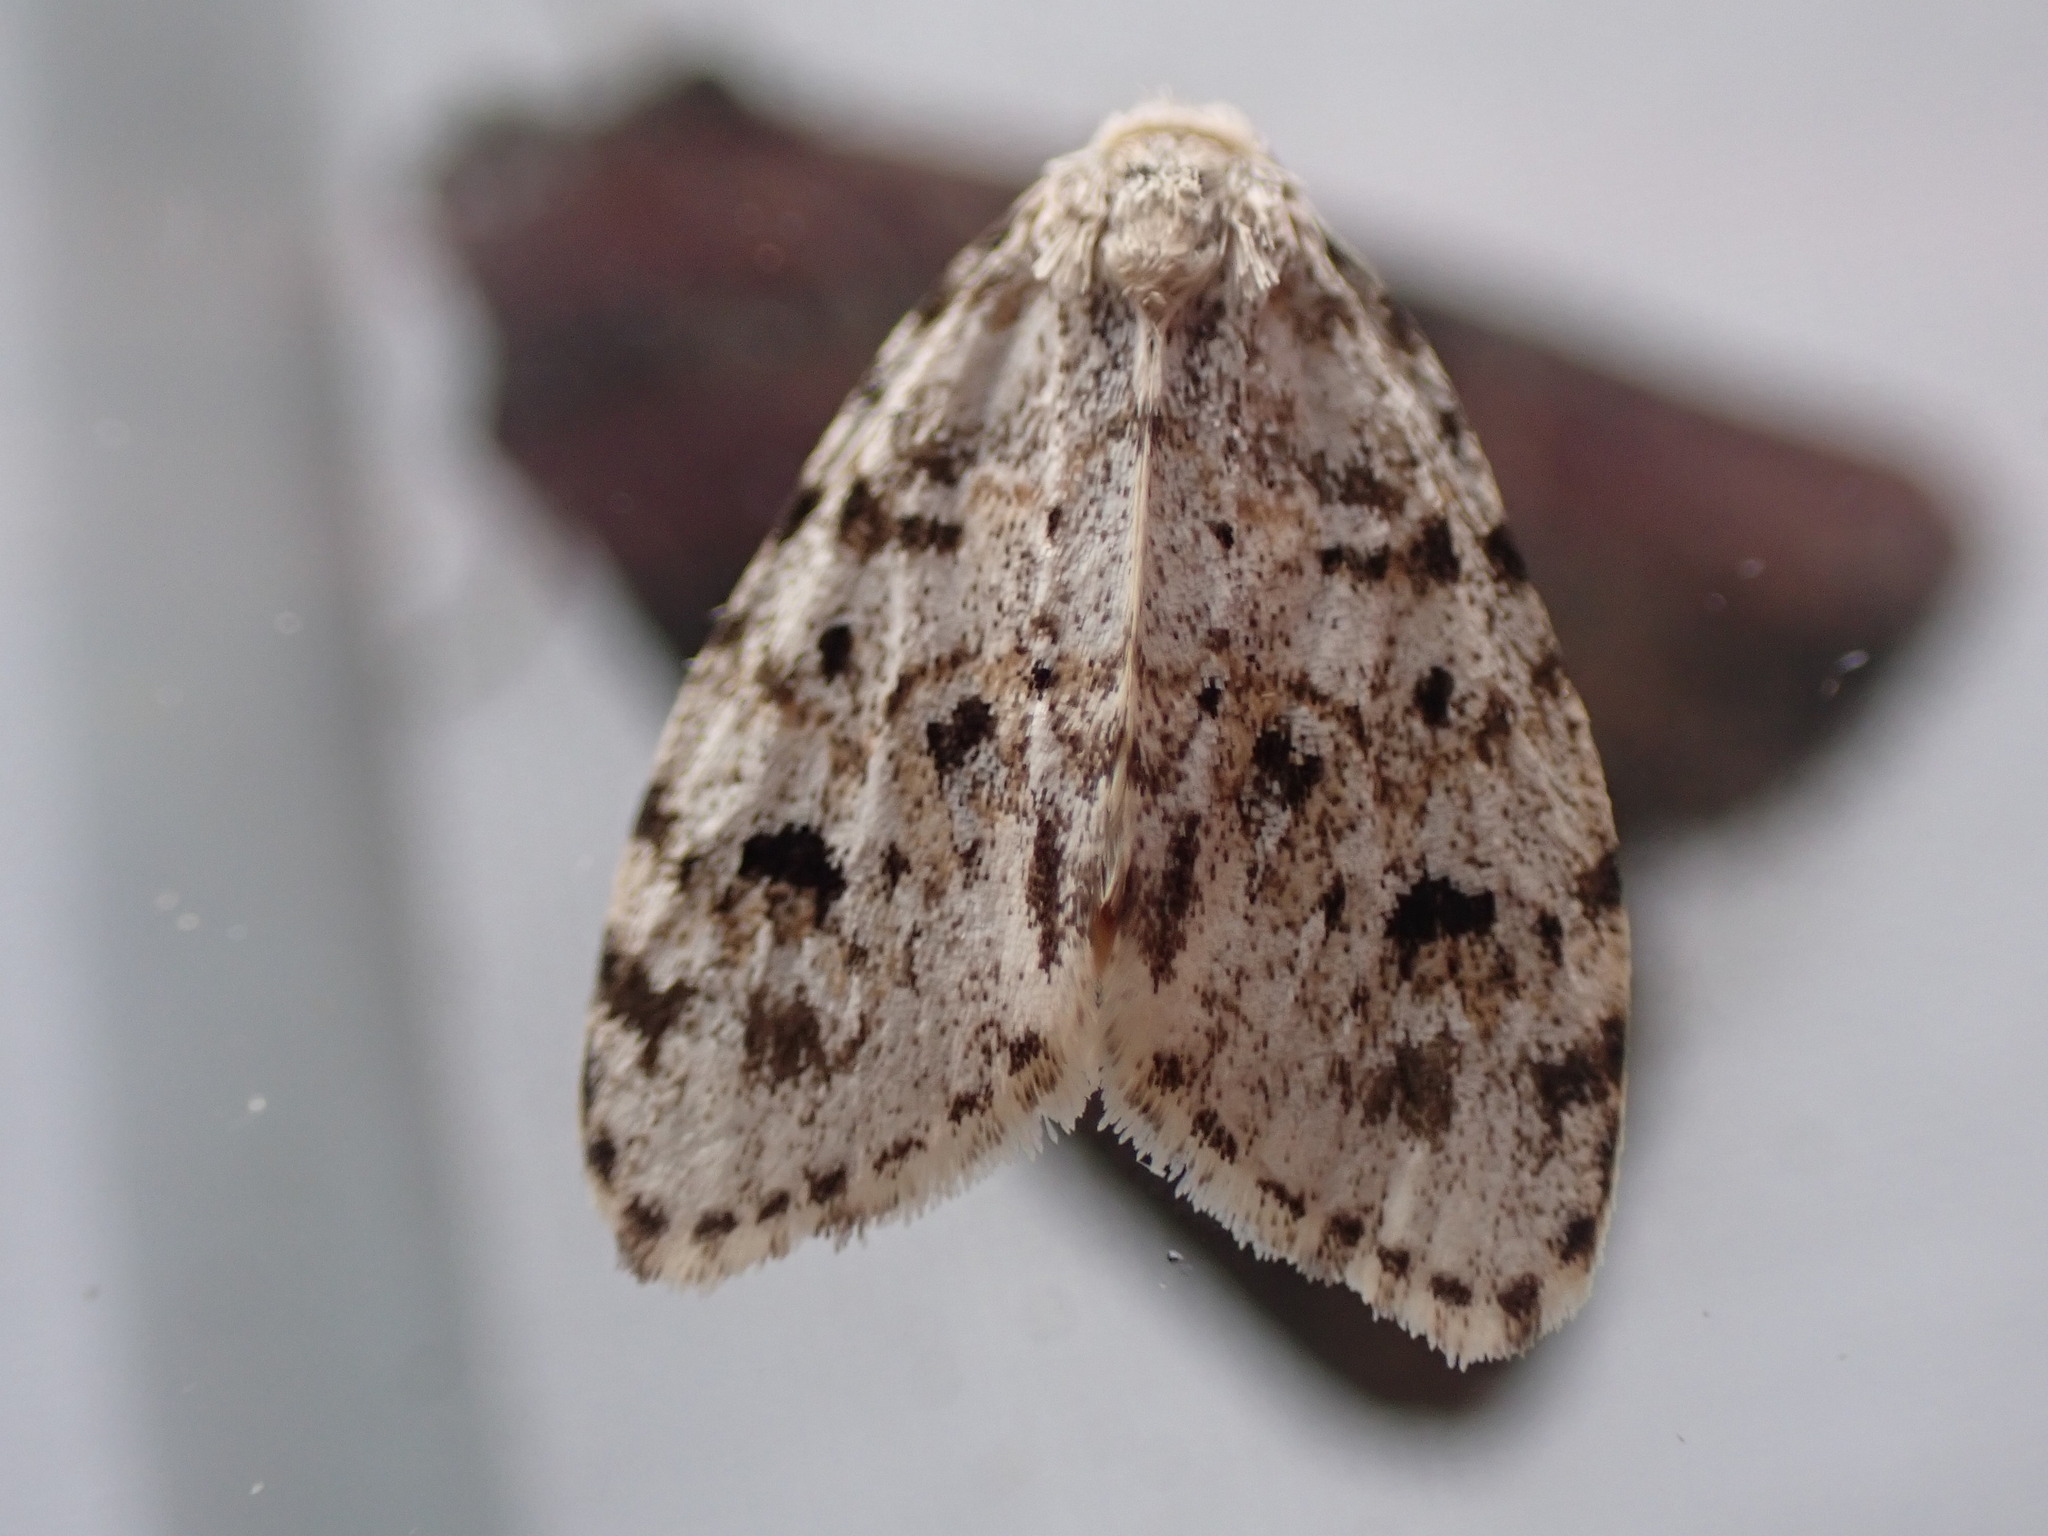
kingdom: Animalia
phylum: Arthropoda
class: Insecta
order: Lepidoptera
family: Erebidae
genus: Clemensia
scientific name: Clemensia umbrata
